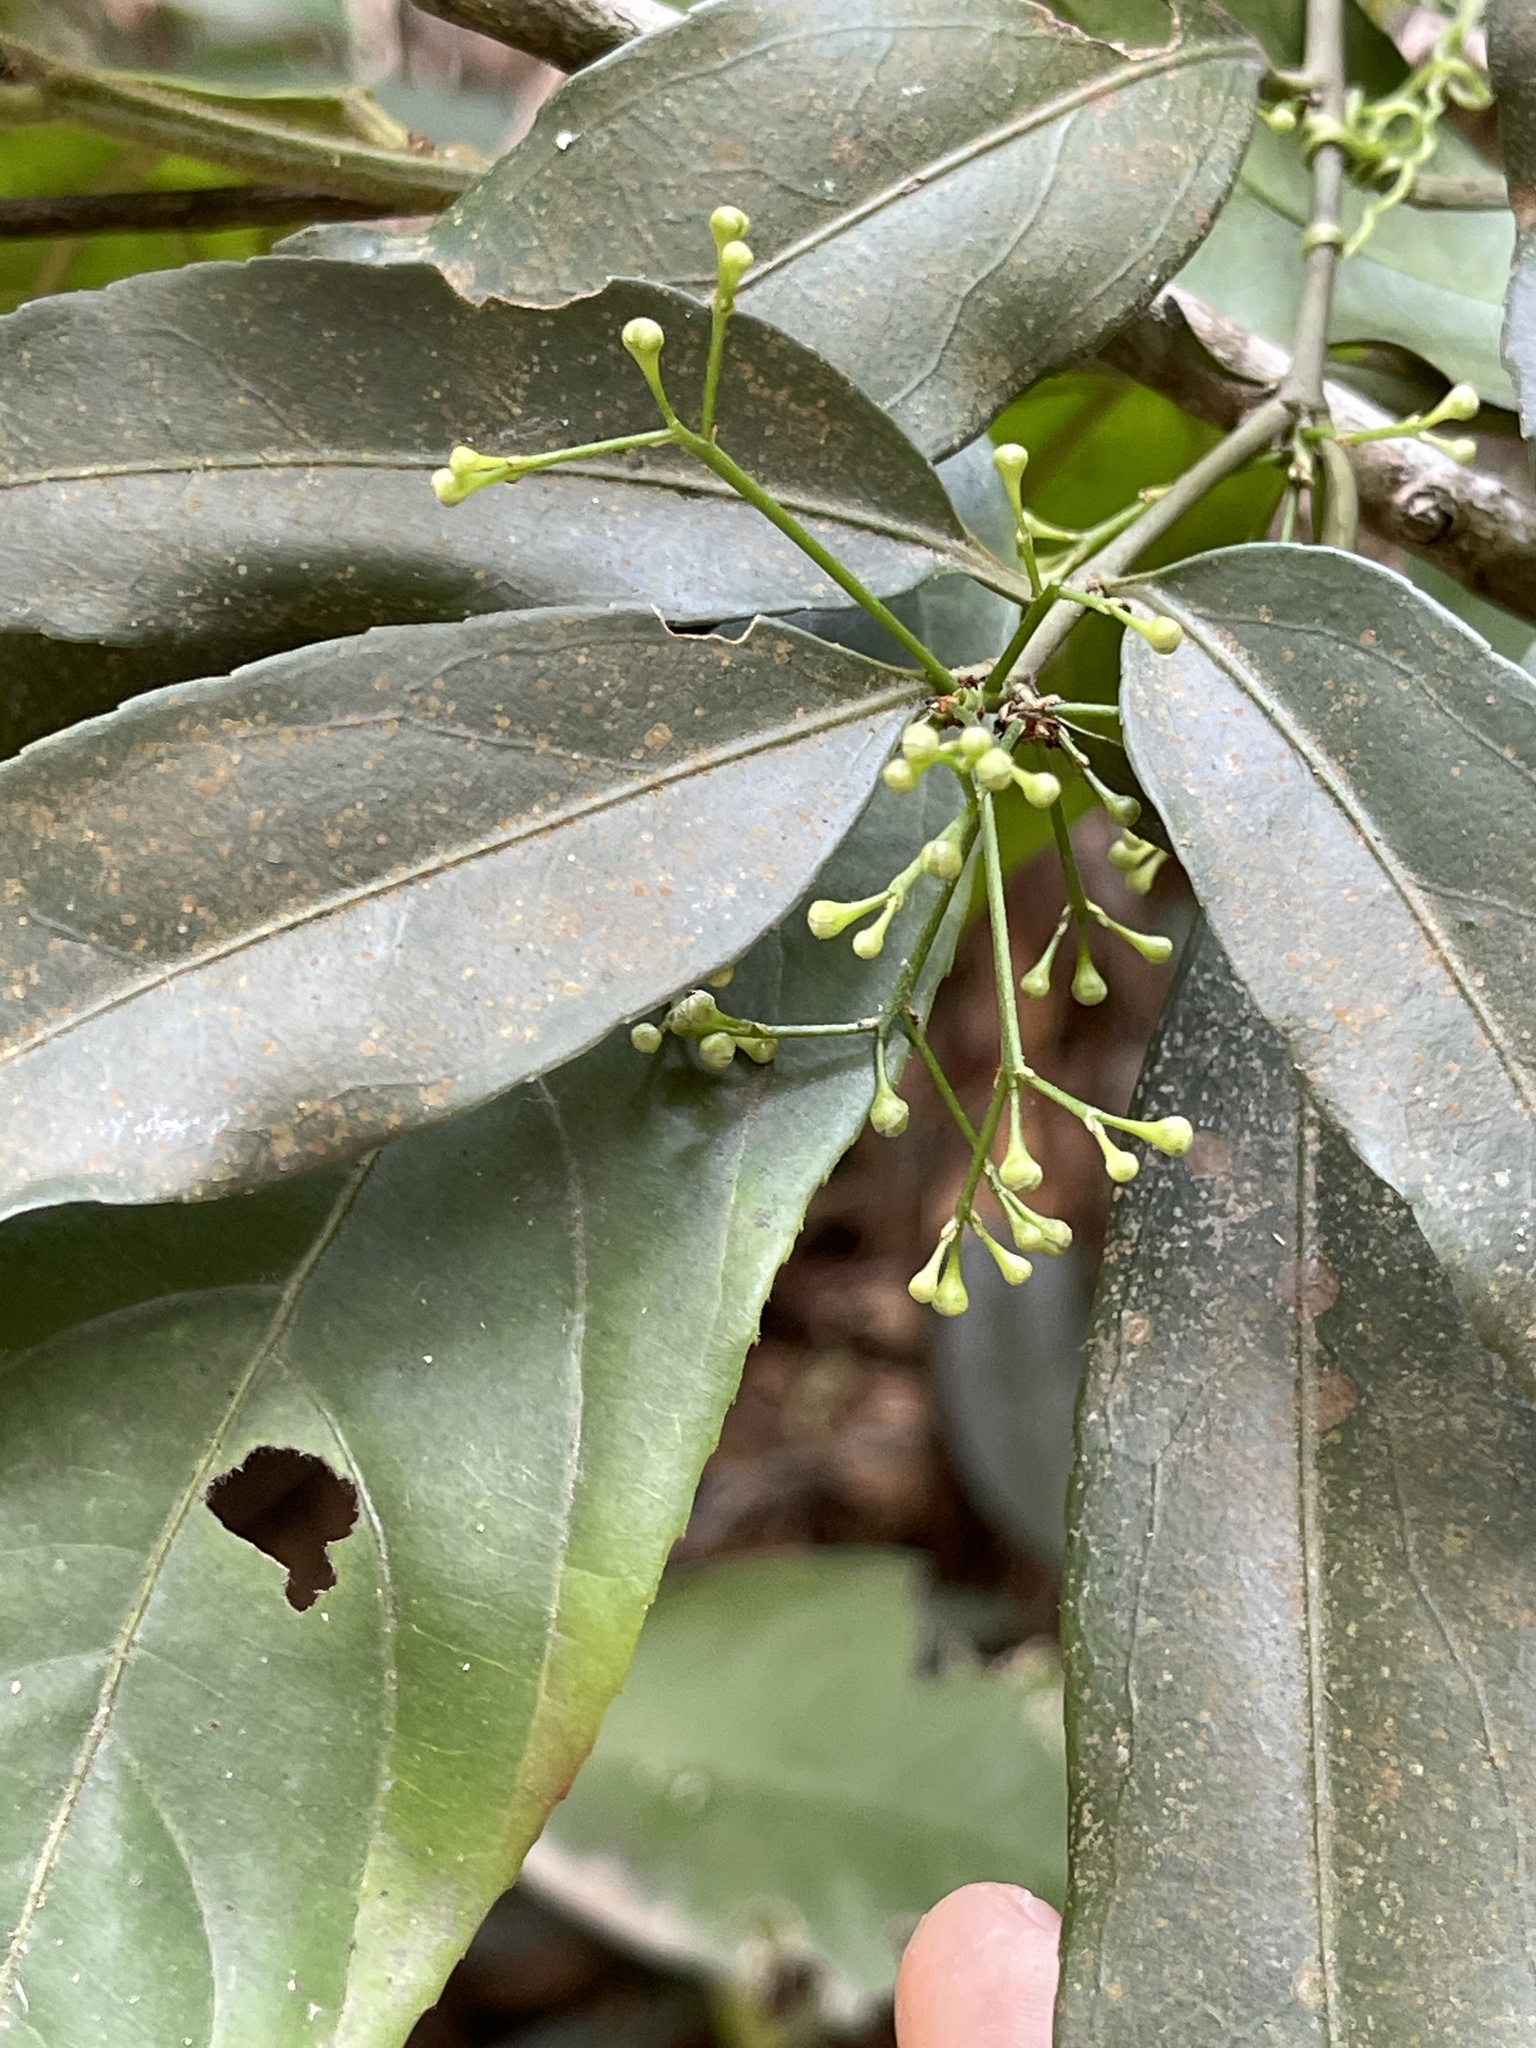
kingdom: Plantae
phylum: Tracheophyta
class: Magnoliopsida
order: Celastrales
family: Celastraceae
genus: Euonymus
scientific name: Euonymus nitidus
